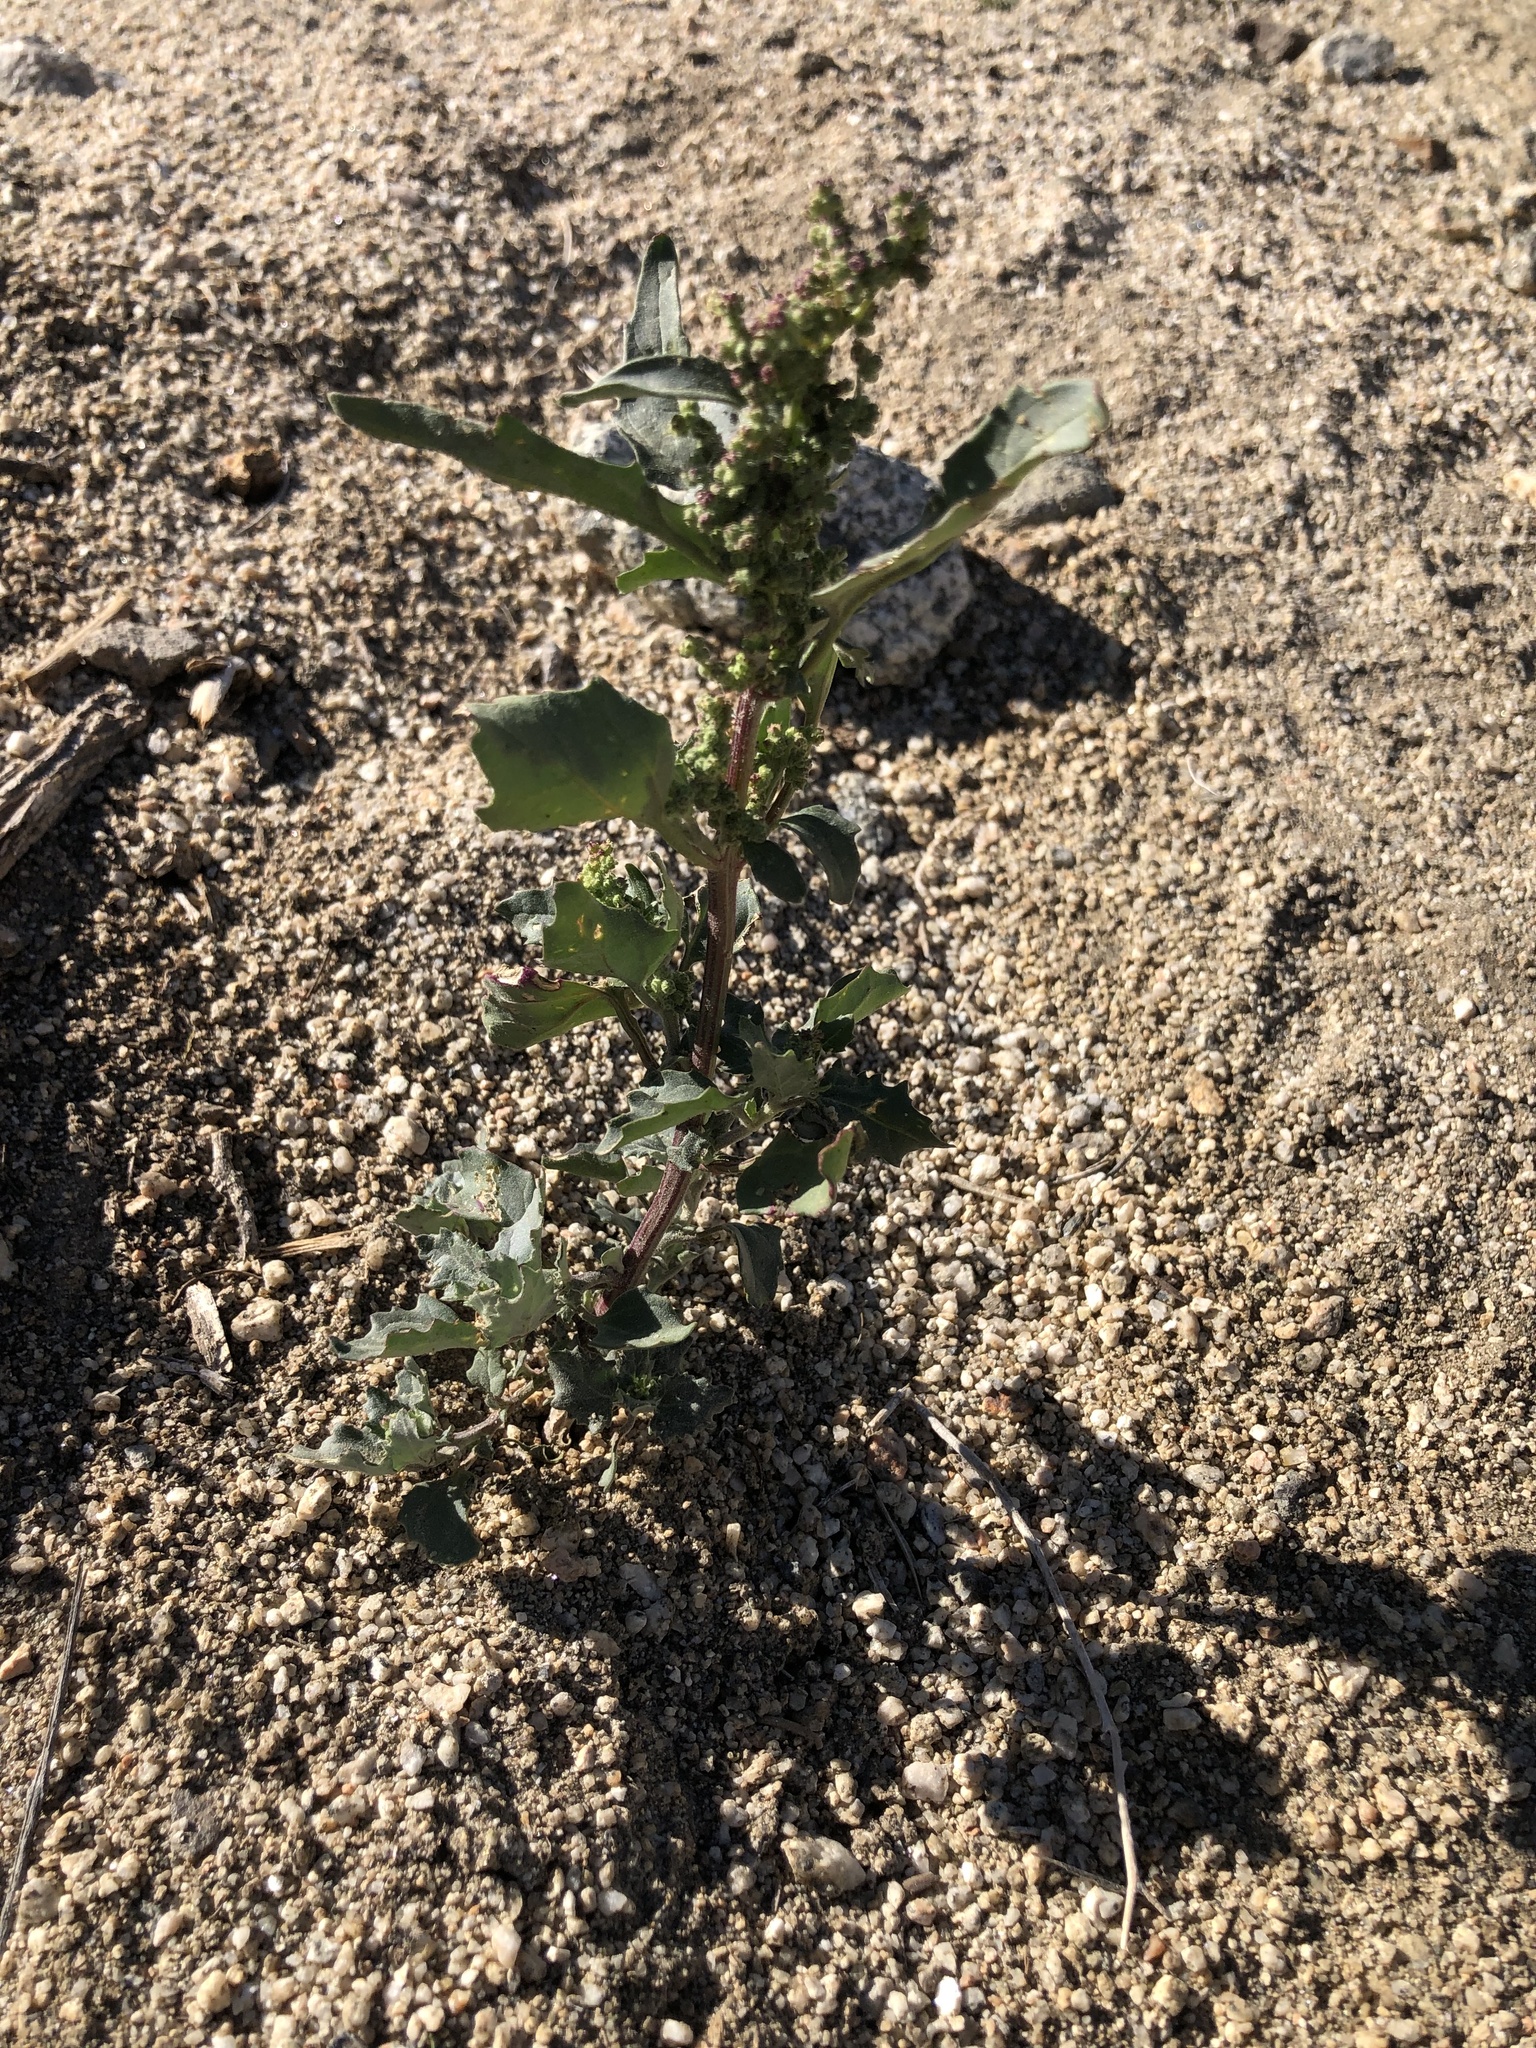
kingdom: Plantae
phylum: Tracheophyta
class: Magnoliopsida
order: Caryophyllales
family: Amaranthaceae
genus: Chenopodiastrum
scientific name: Chenopodiastrum murale
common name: Sowbane
